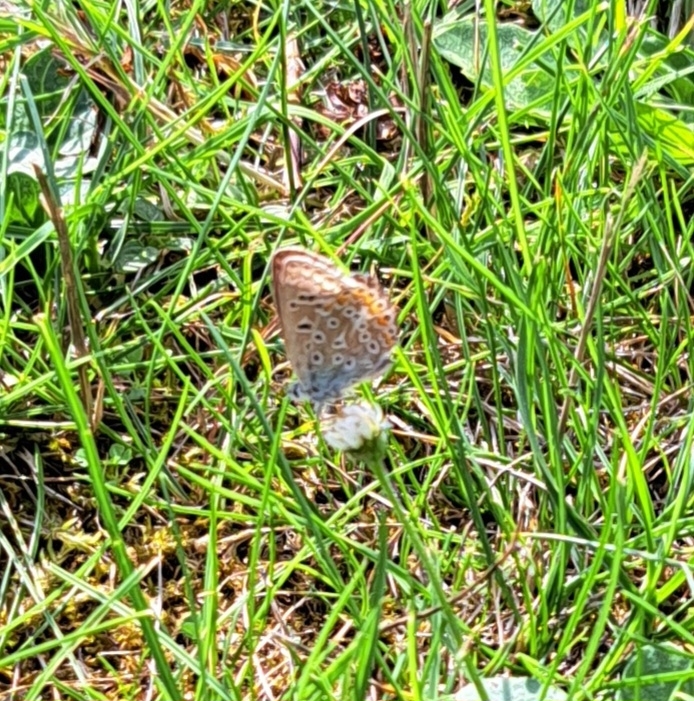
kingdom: Animalia
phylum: Arthropoda
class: Insecta
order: Lepidoptera
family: Lycaenidae
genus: Polyommatus
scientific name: Polyommatus icarus
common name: Common blue
